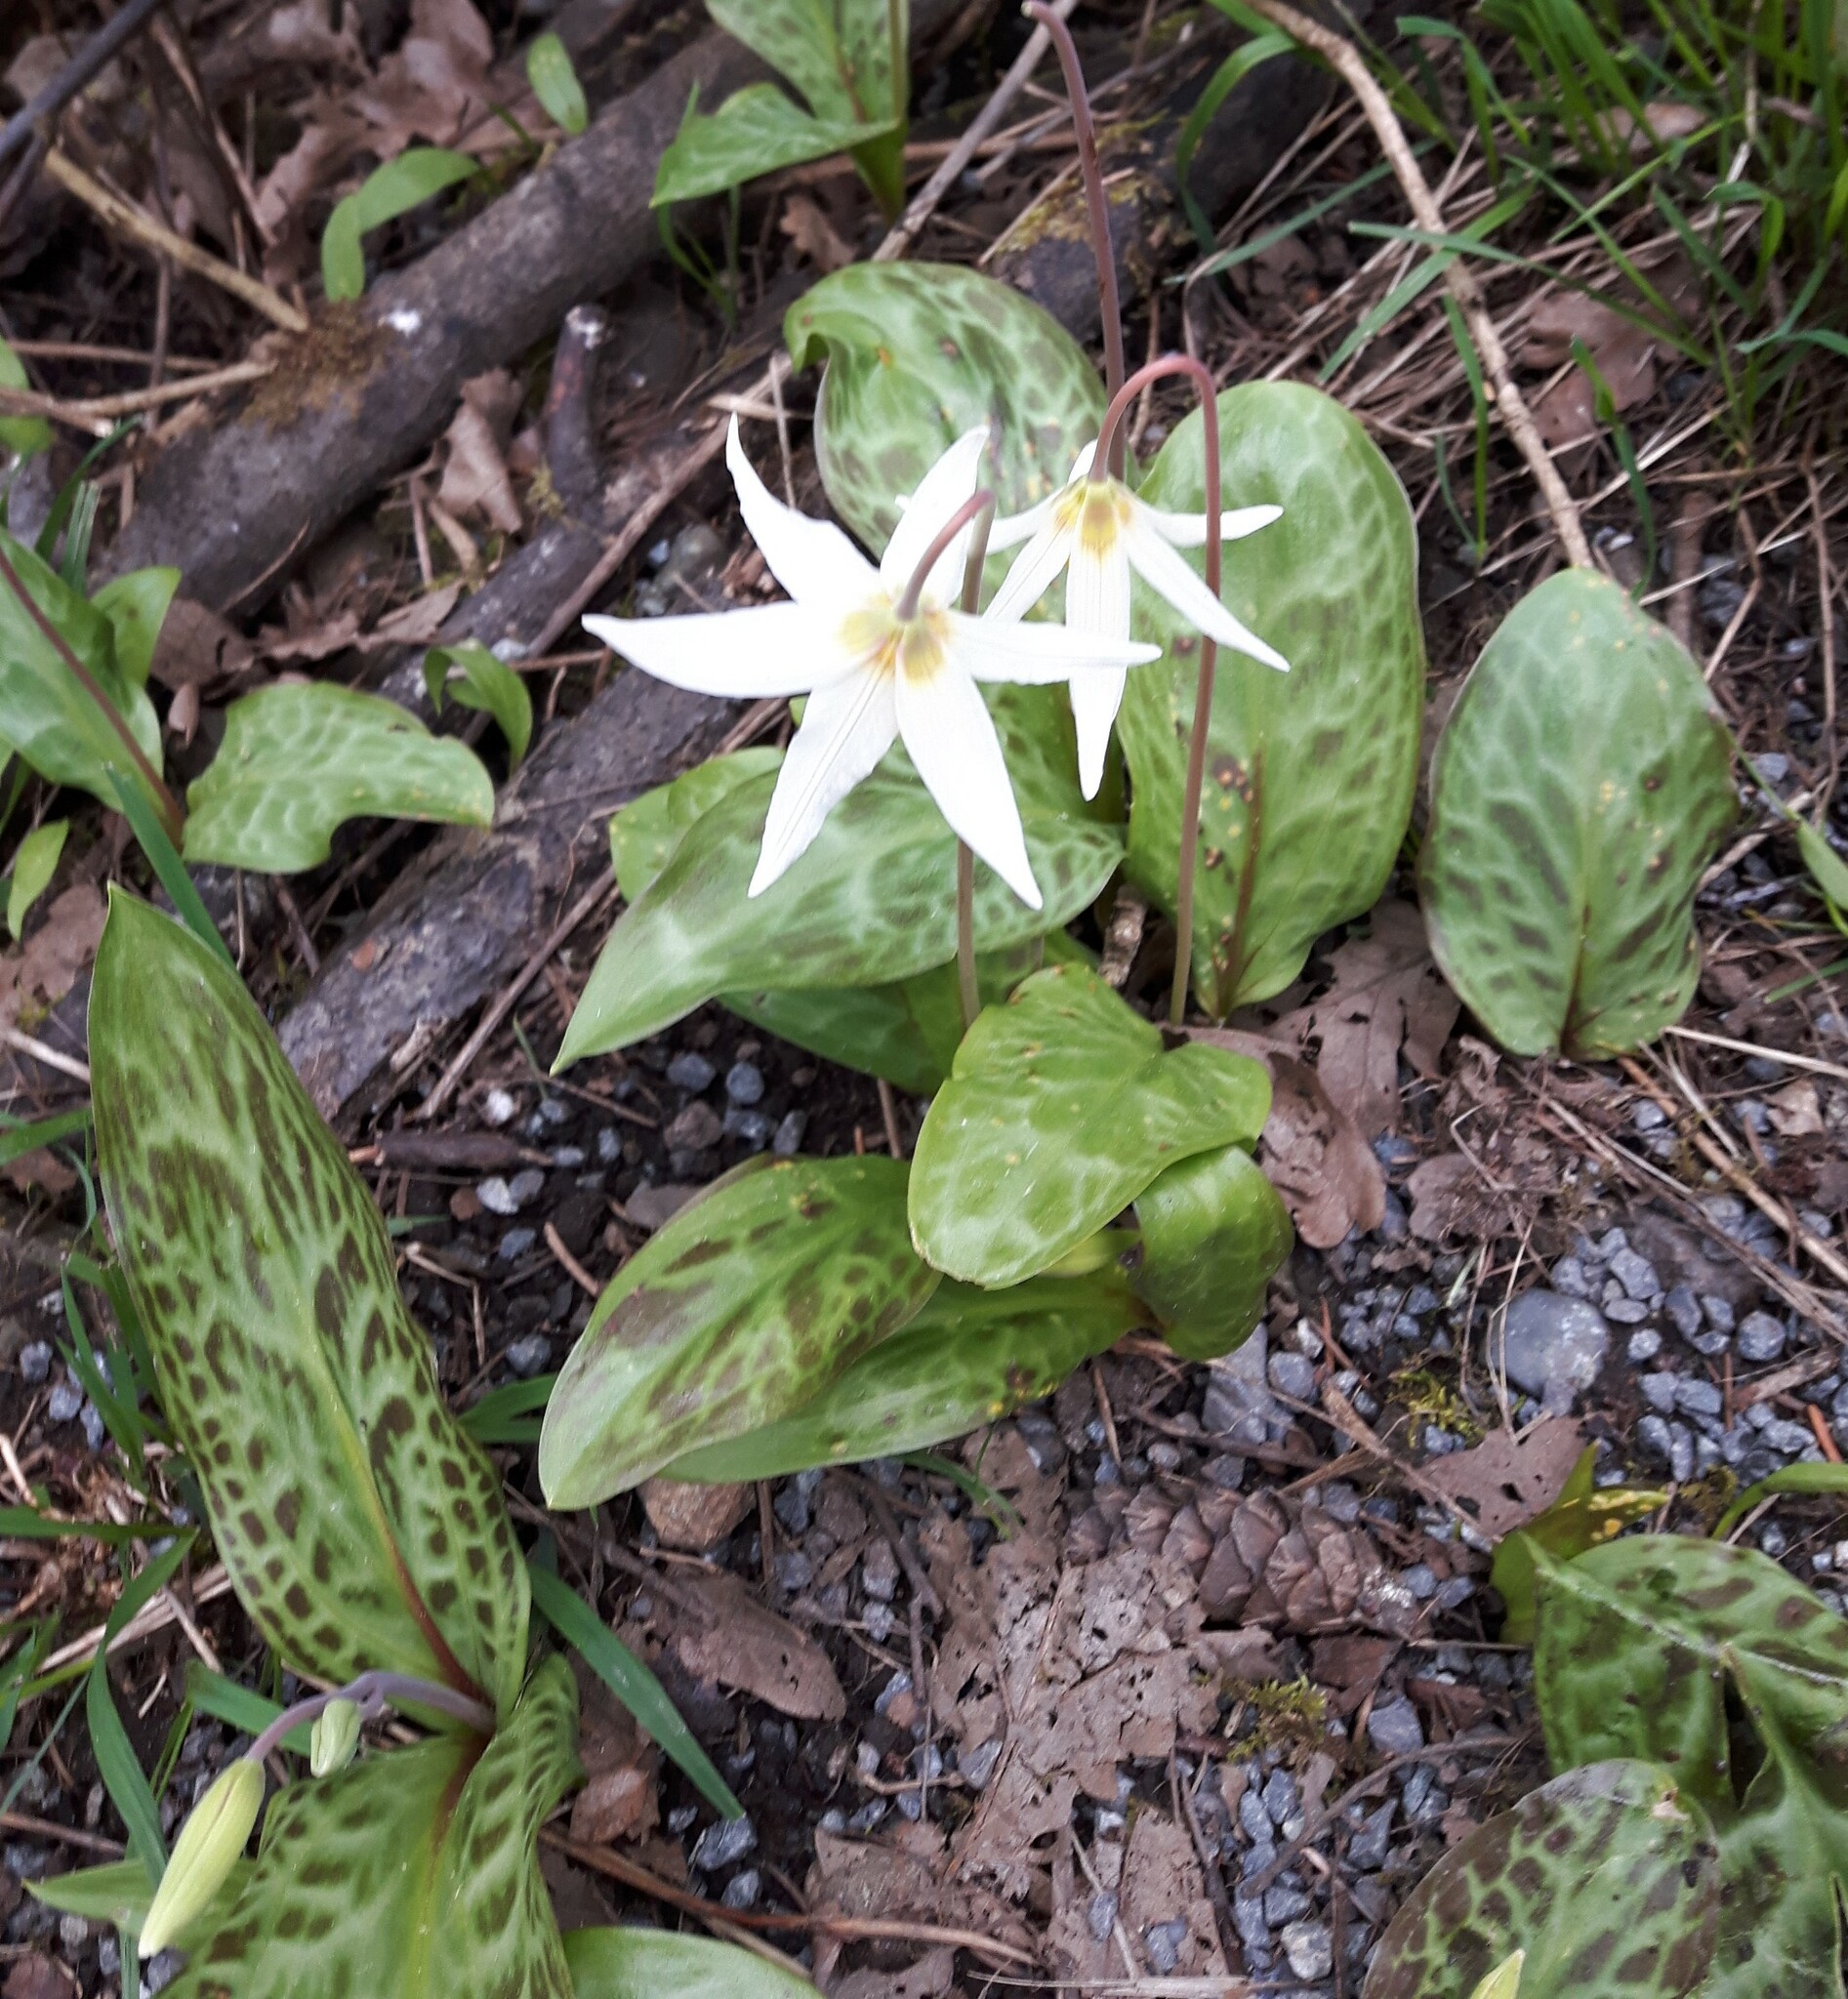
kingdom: Plantae
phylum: Tracheophyta
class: Liliopsida
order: Liliales
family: Liliaceae
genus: Erythronium
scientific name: Erythronium oregonum
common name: Giant adder's-tongue
